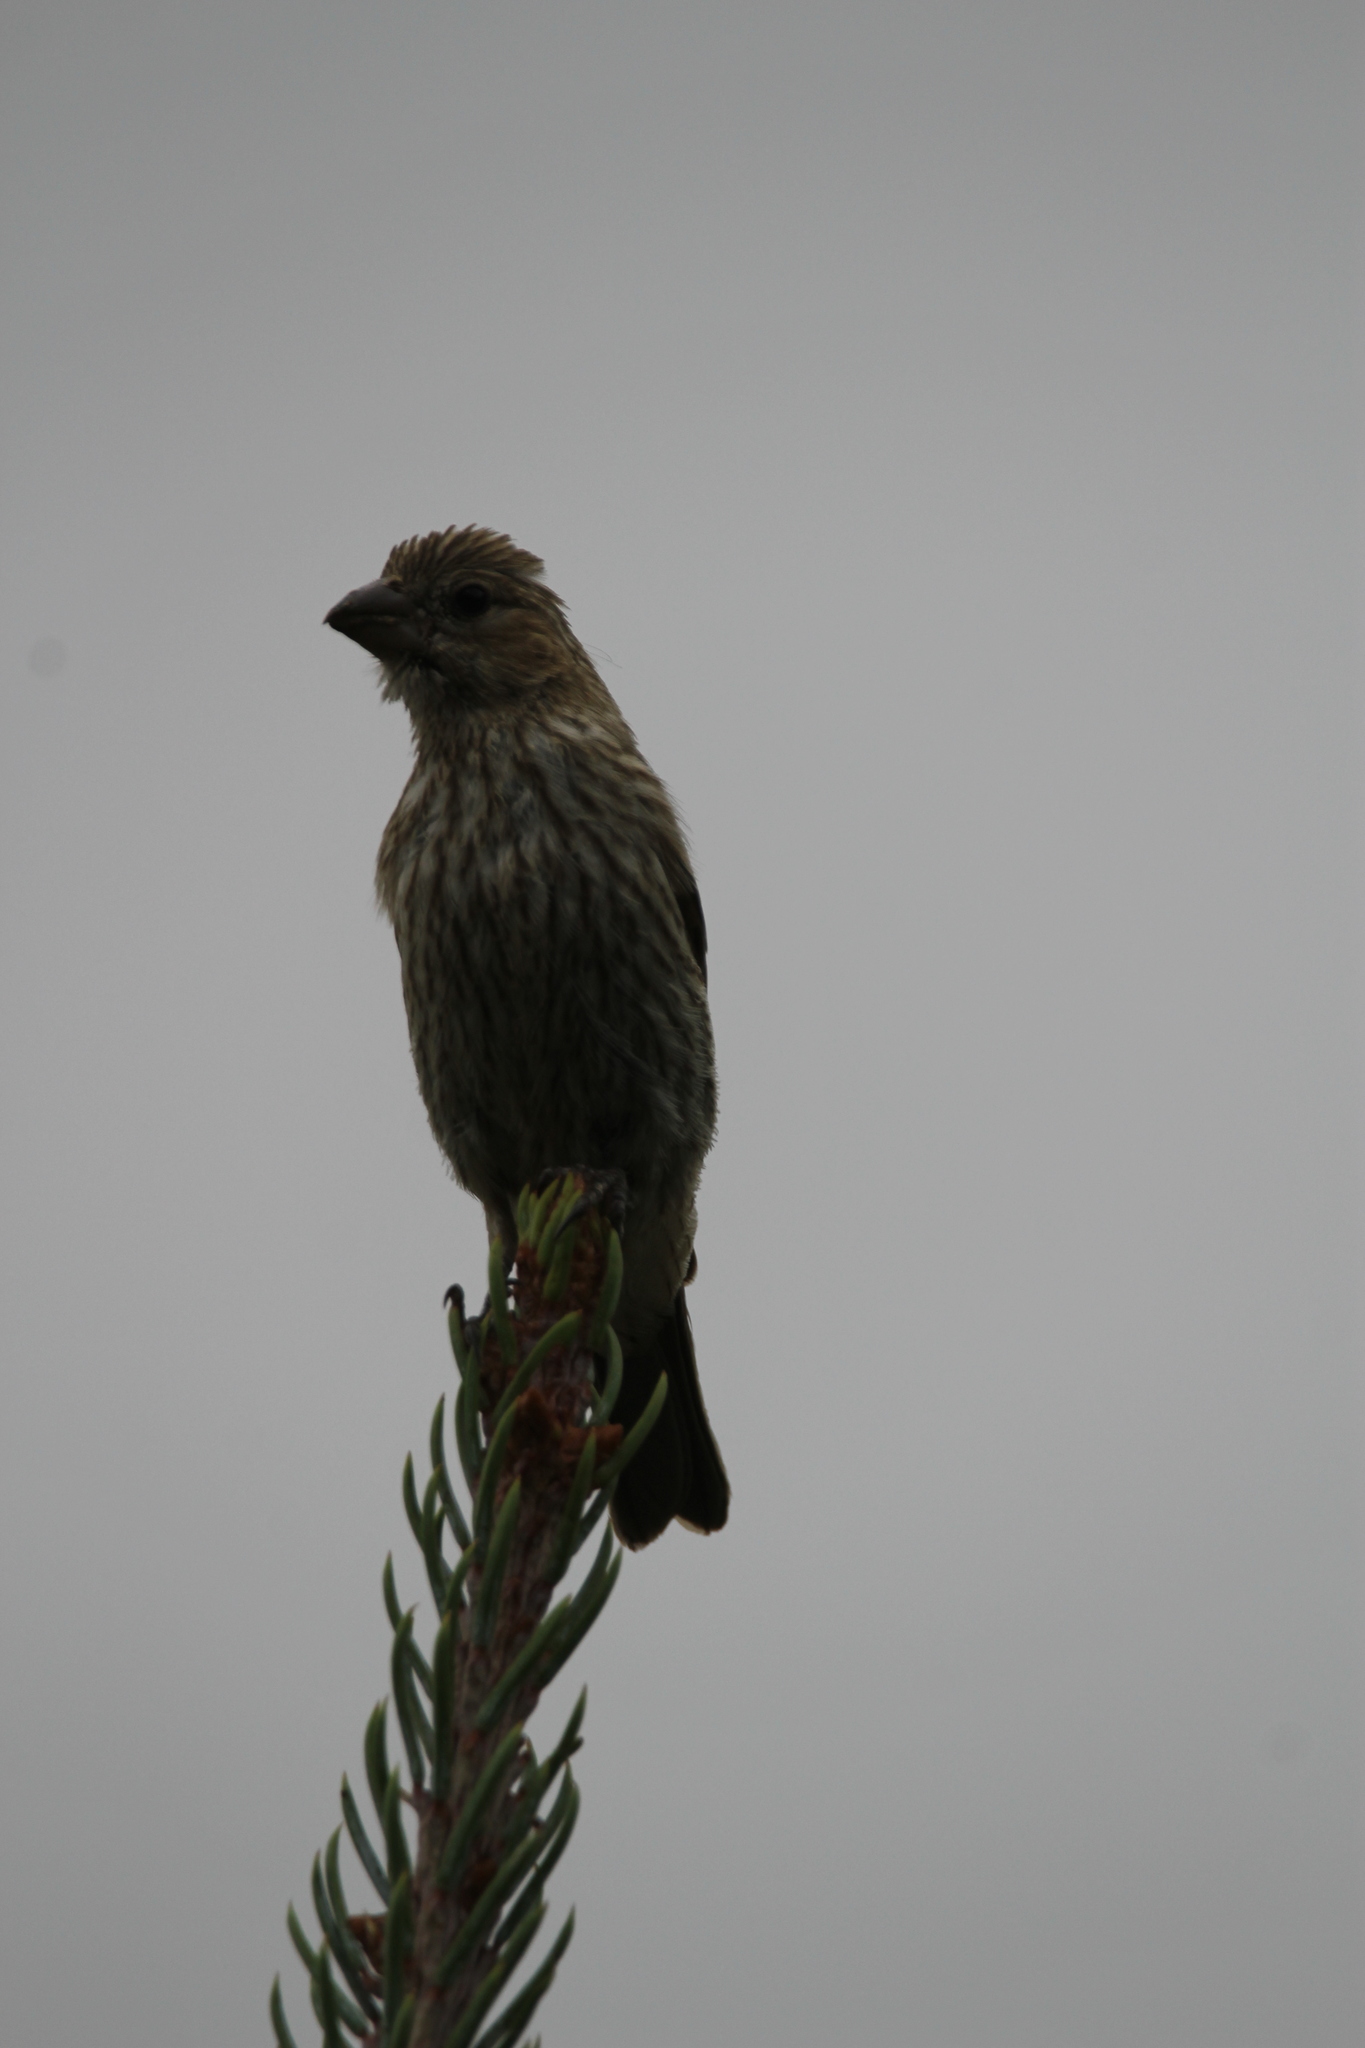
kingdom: Animalia
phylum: Chordata
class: Aves
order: Passeriformes
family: Fringillidae
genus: Haemorhous
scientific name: Haemorhous mexicanus
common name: House finch
